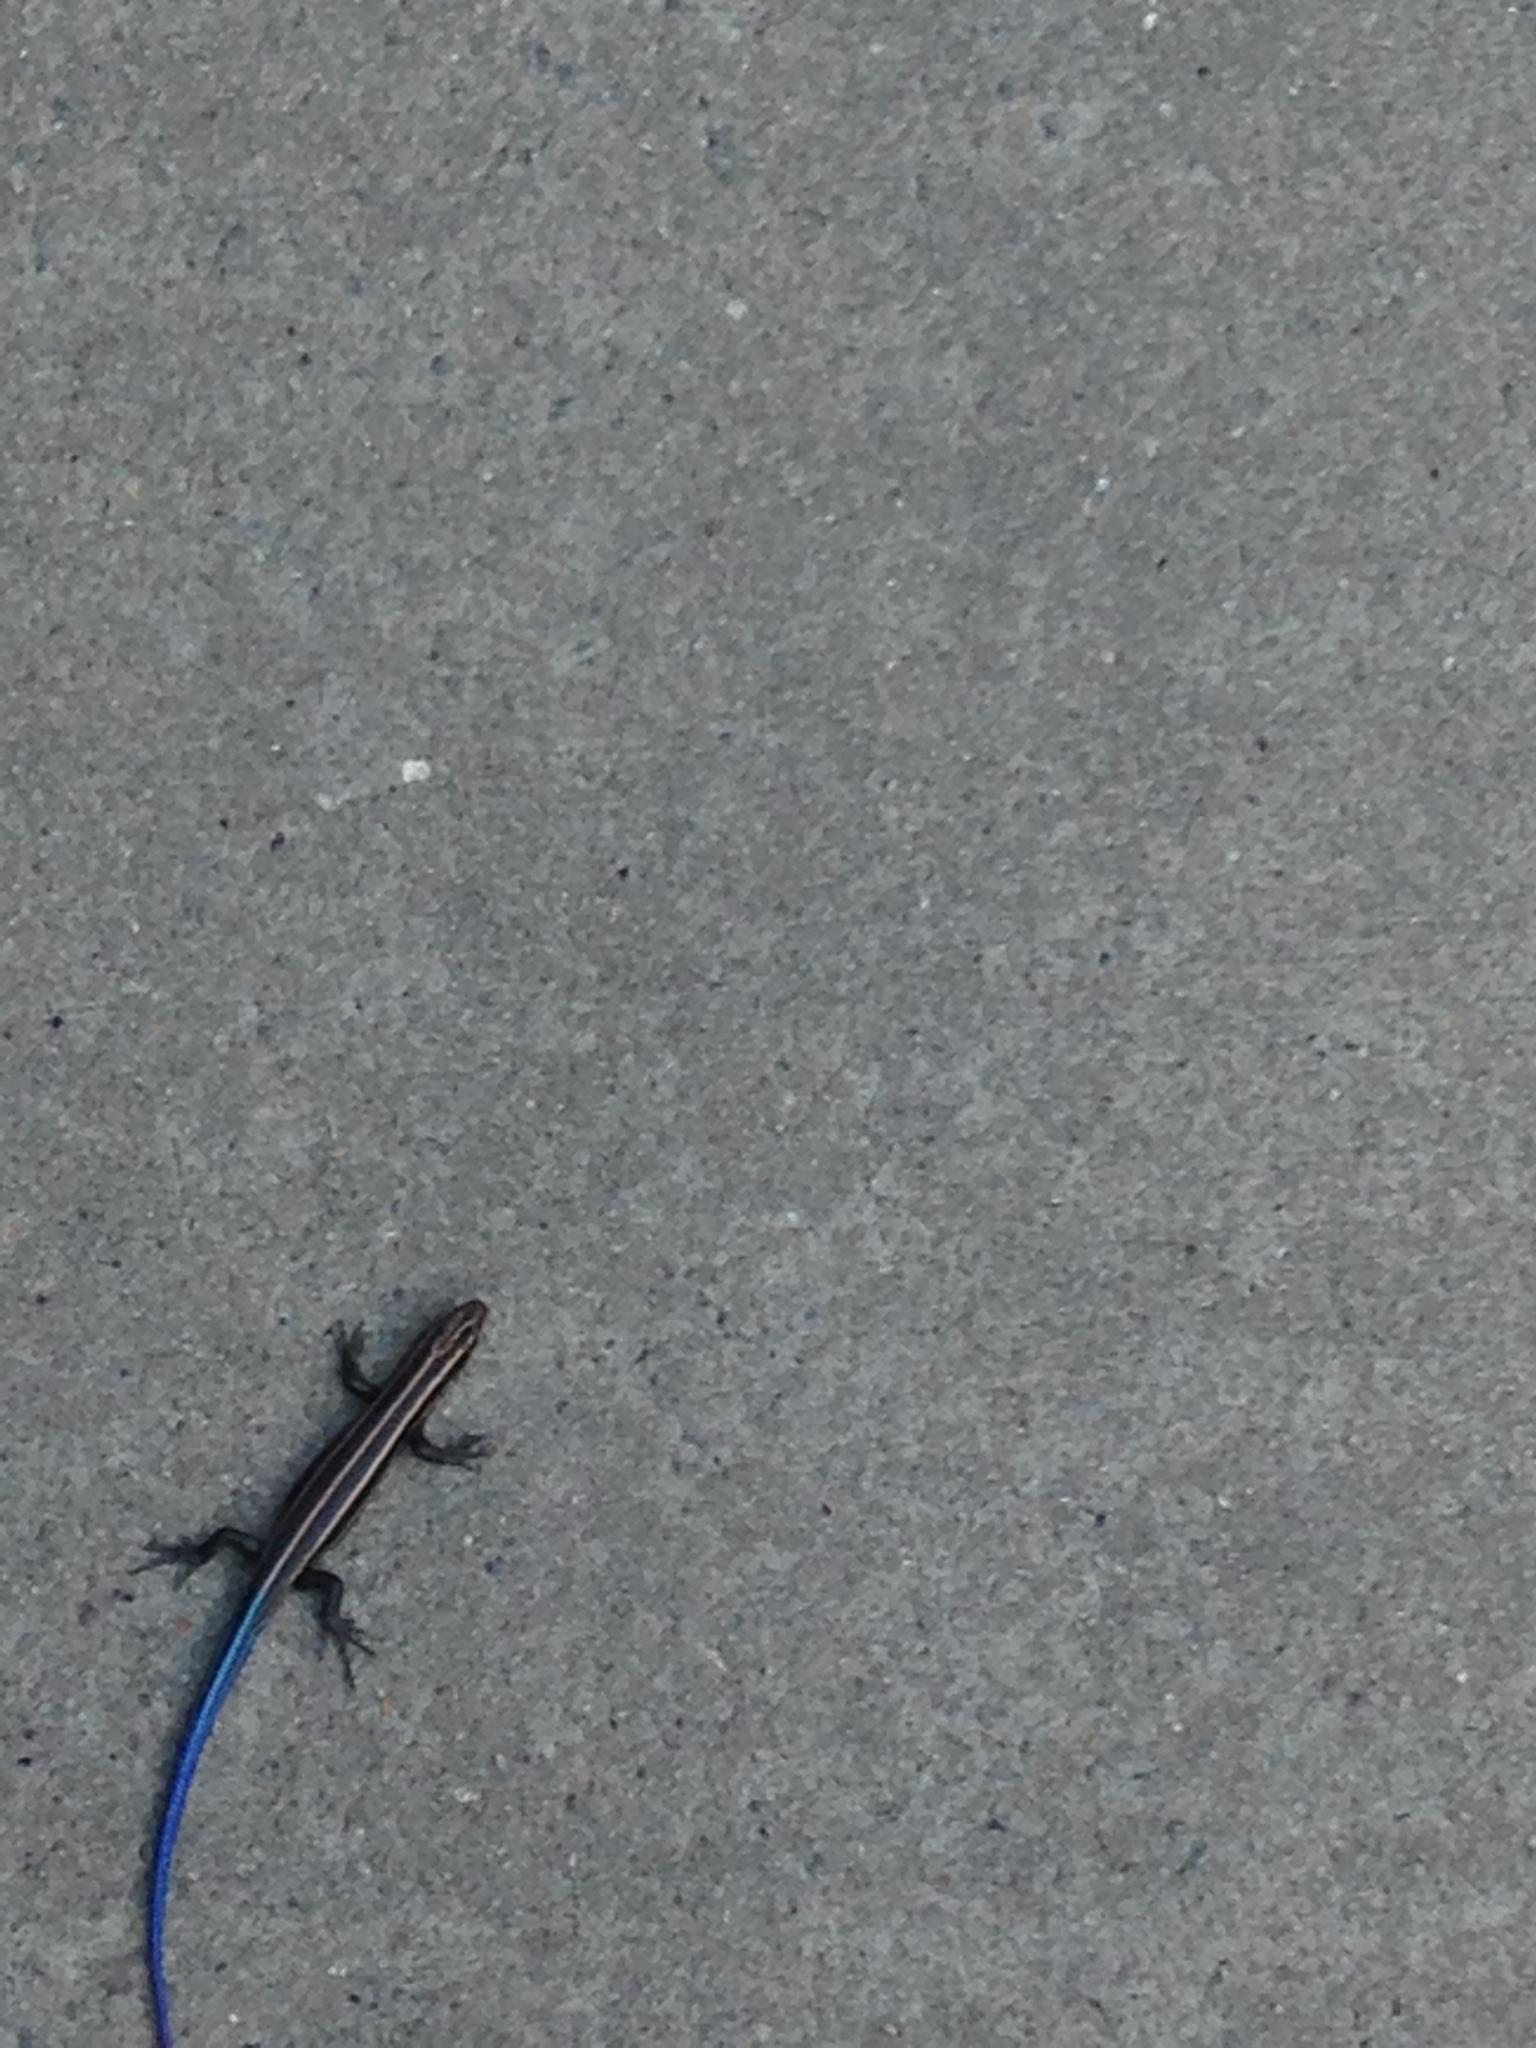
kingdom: Animalia
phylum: Chordata
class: Squamata
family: Scincidae
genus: Plestiodon
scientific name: Plestiodon fasciatus
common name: Five-lined skink
